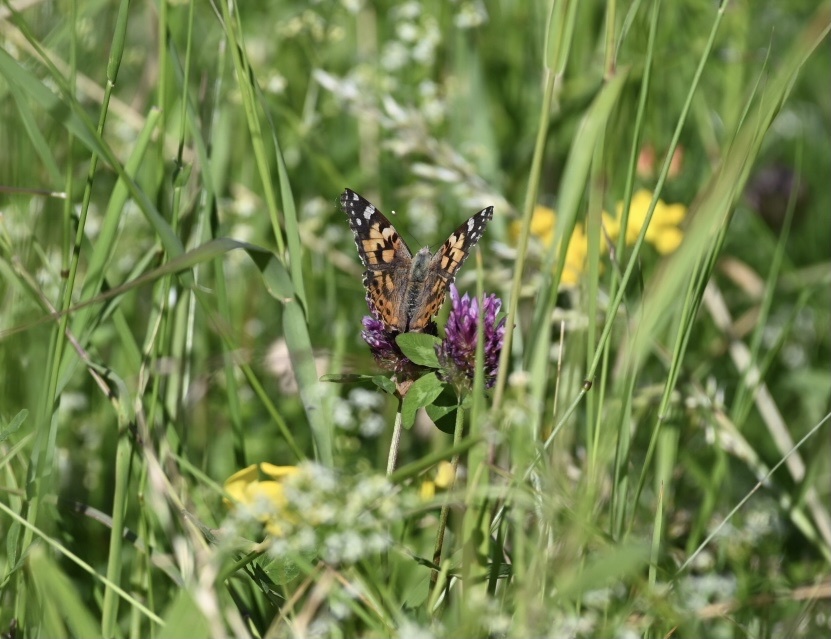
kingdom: Animalia
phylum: Arthropoda
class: Insecta
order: Lepidoptera
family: Nymphalidae
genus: Vanessa
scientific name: Vanessa cardui
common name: Painted lady
